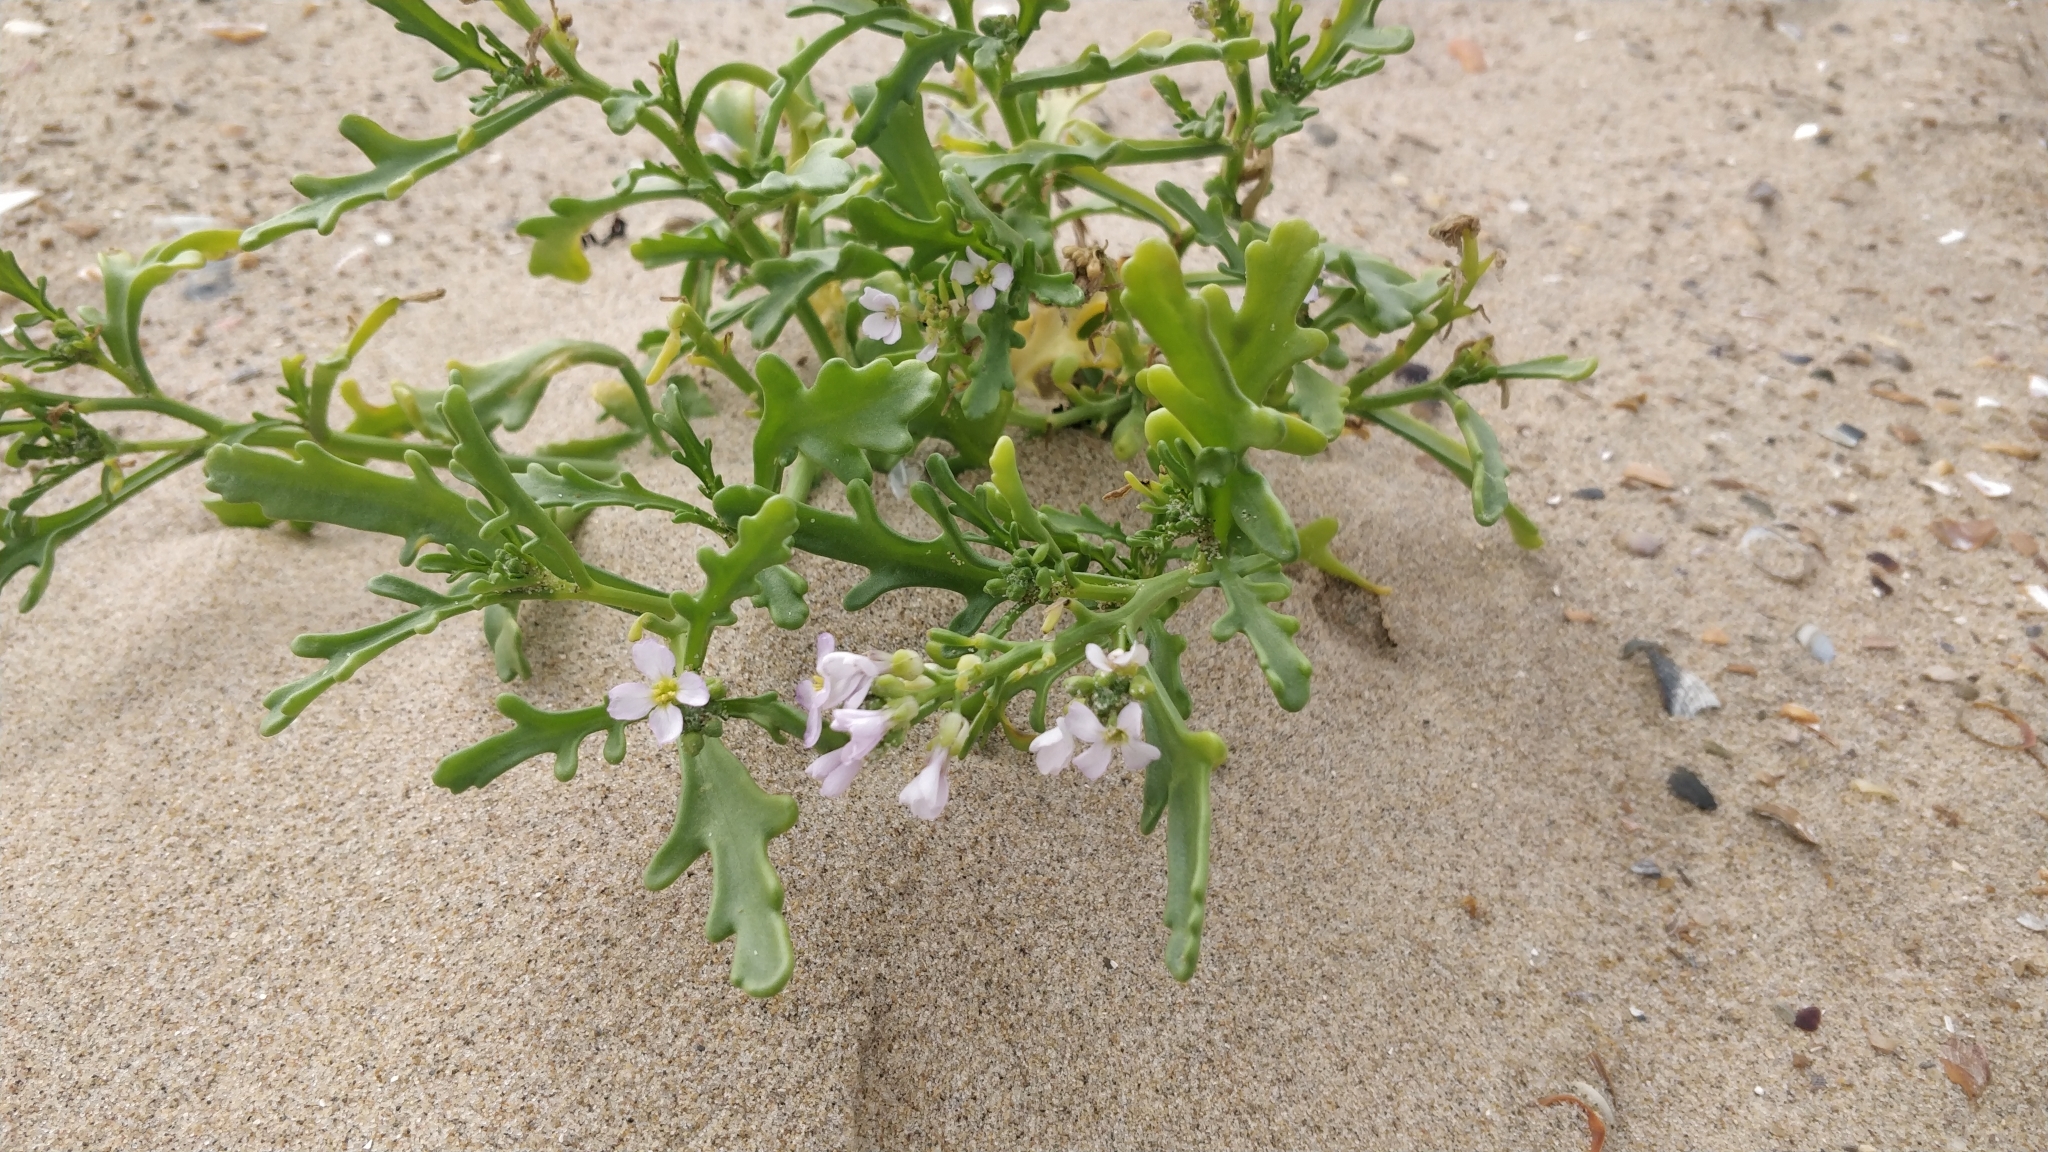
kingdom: Plantae
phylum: Tracheophyta
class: Magnoliopsida
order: Brassicales
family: Brassicaceae
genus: Cakile
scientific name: Cakile maritima
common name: Sea rocket
